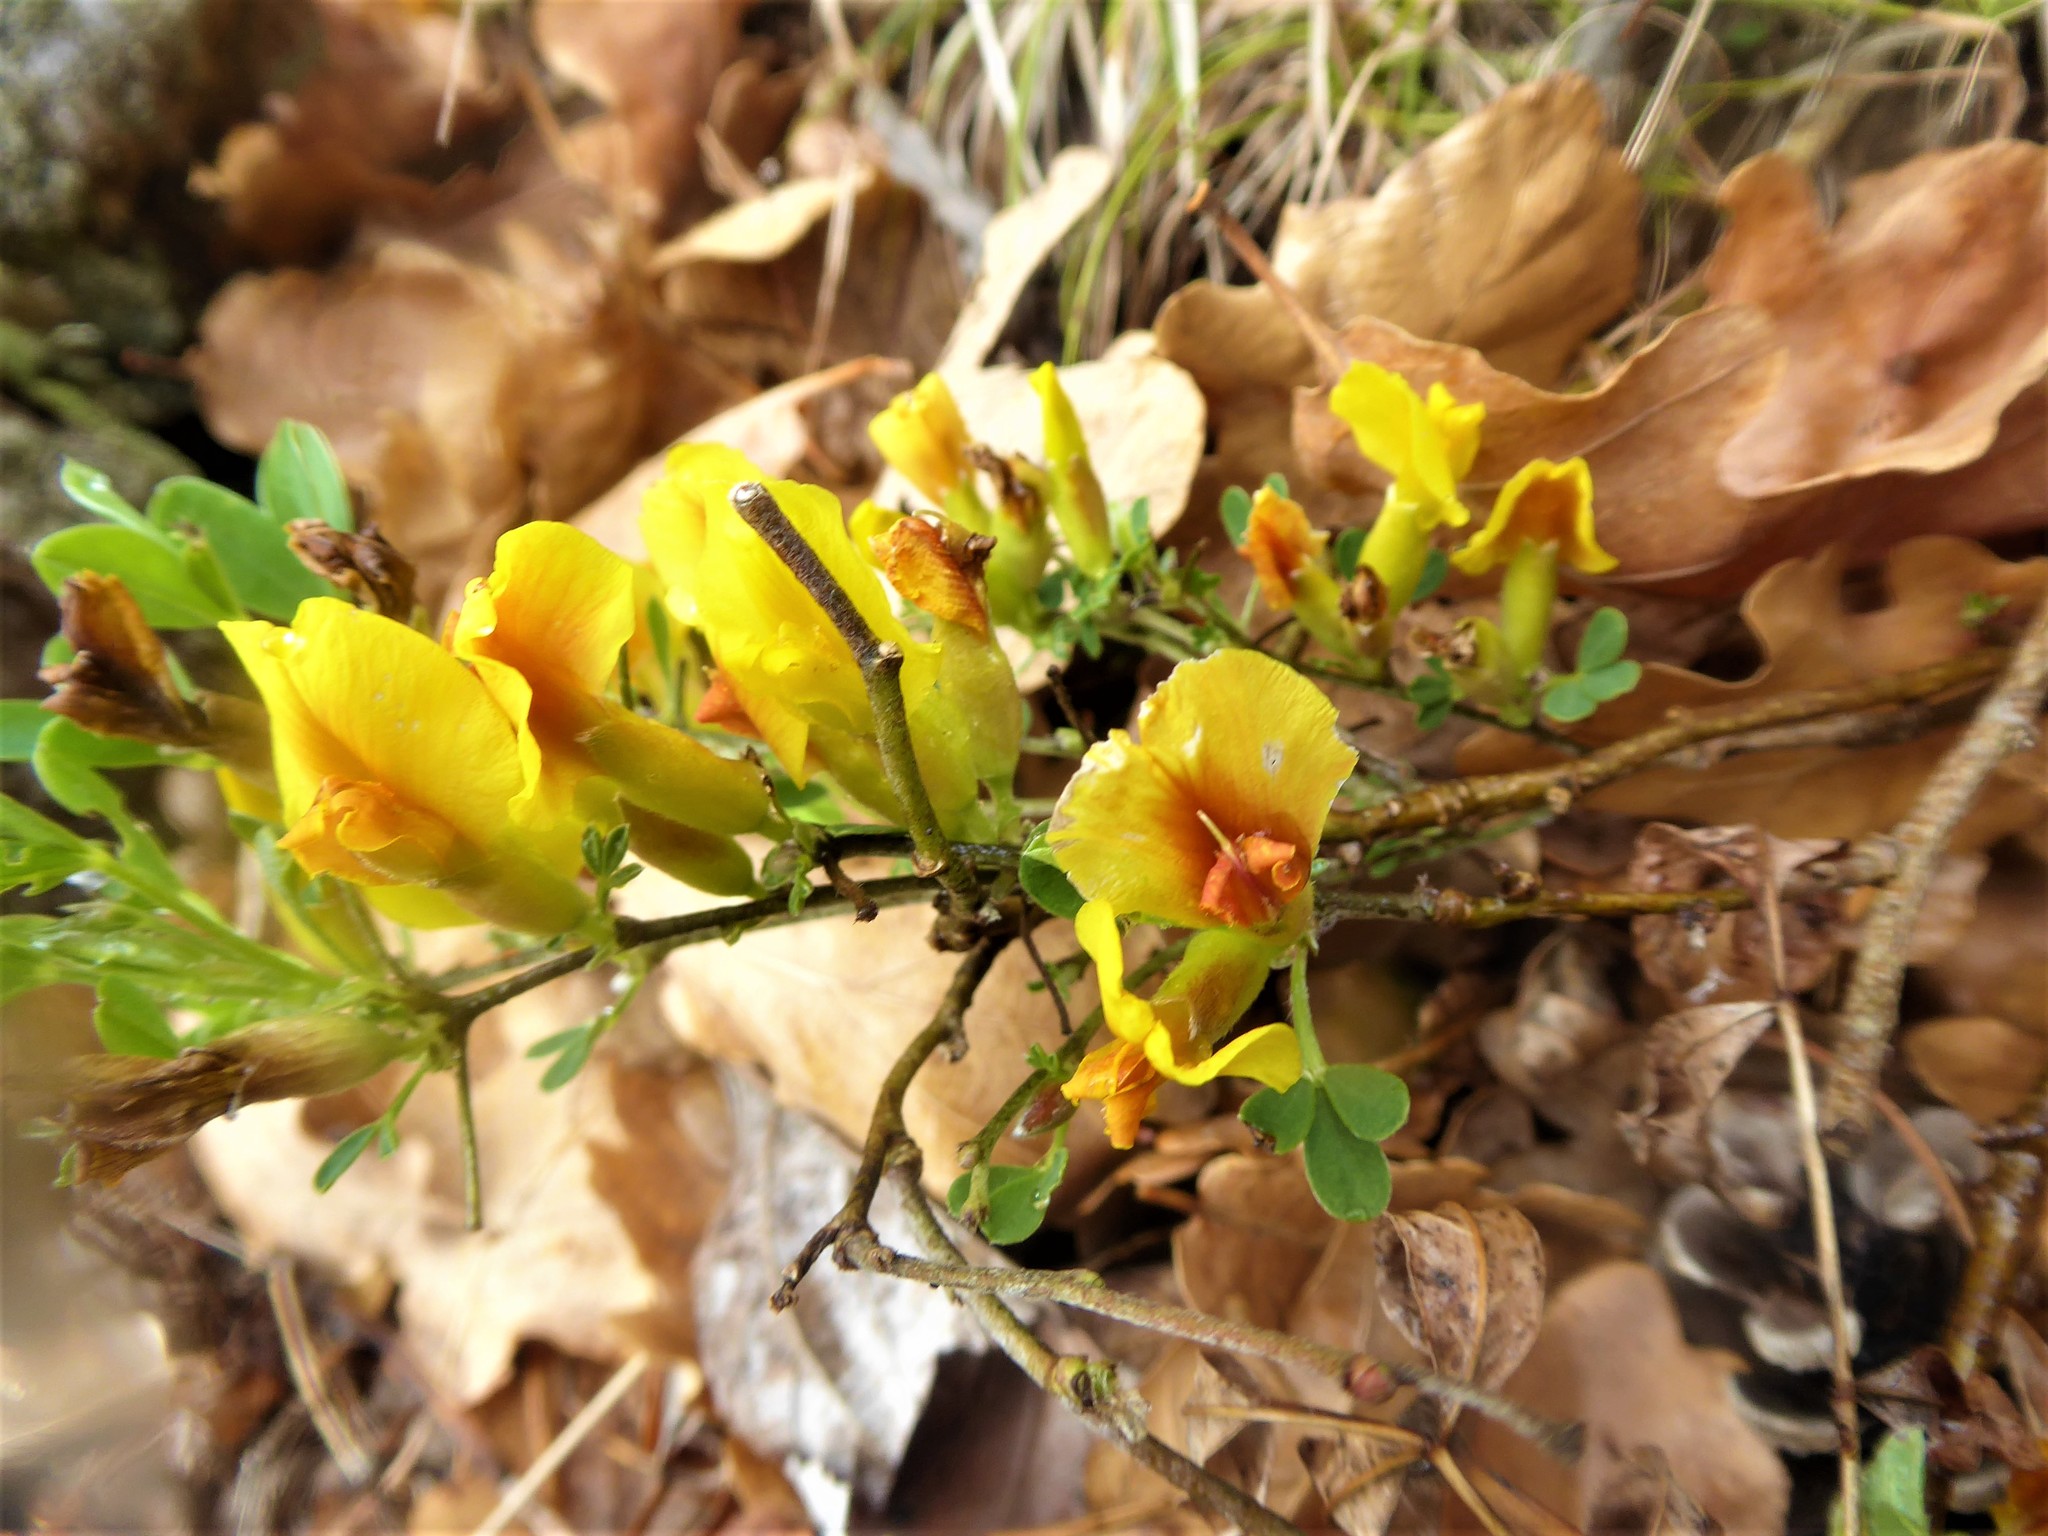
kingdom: Plantae
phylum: Tracheophyta
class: Magnoliopsida
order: Fabales
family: Fabaceae
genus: Chamaecytisus
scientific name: Chamaecytisus ratisbonensis
